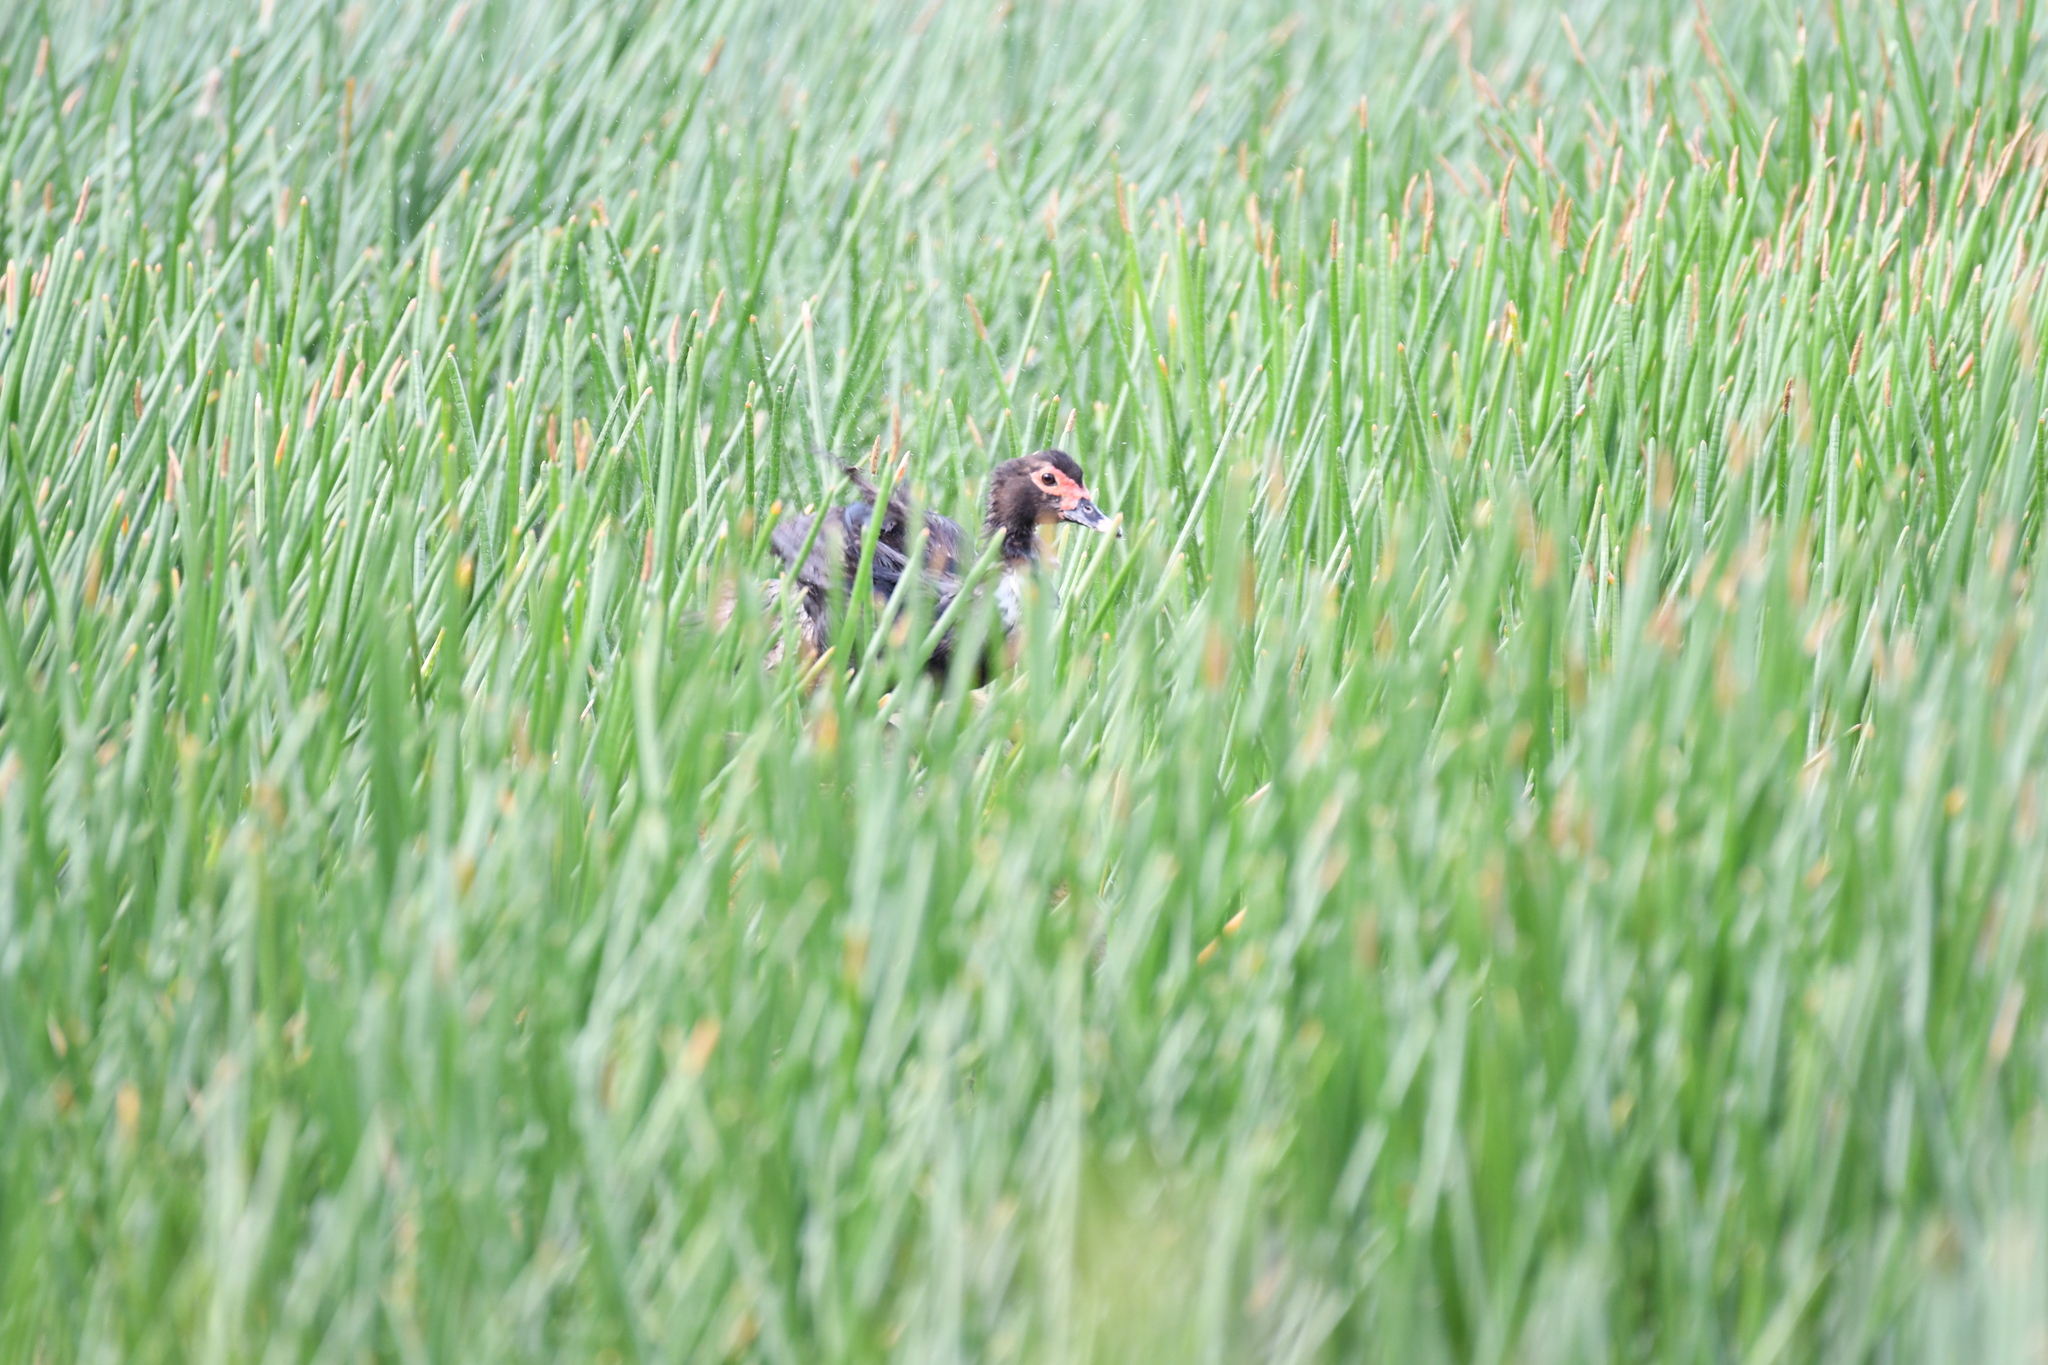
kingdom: Animalia
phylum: Chordata
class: Aves
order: Anseriformes
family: Anatidae
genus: Cairina
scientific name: Cairina moschata
